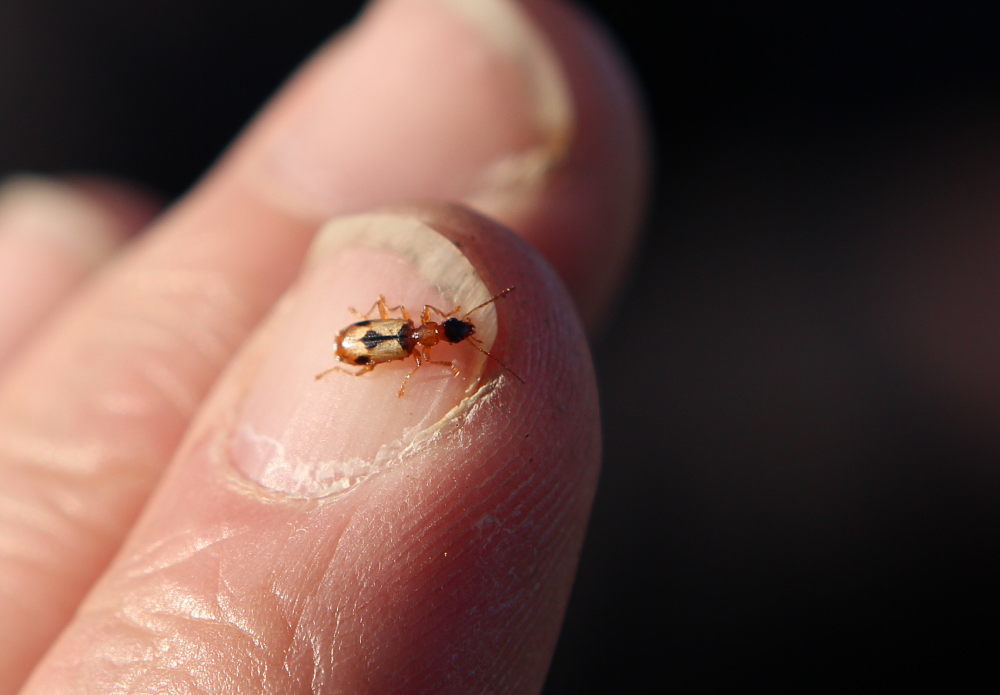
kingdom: Animalia
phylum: Arthropoda
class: Insecta
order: Coleoptera
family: Carabidae
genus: Demetrias
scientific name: Demetrias imperialis
